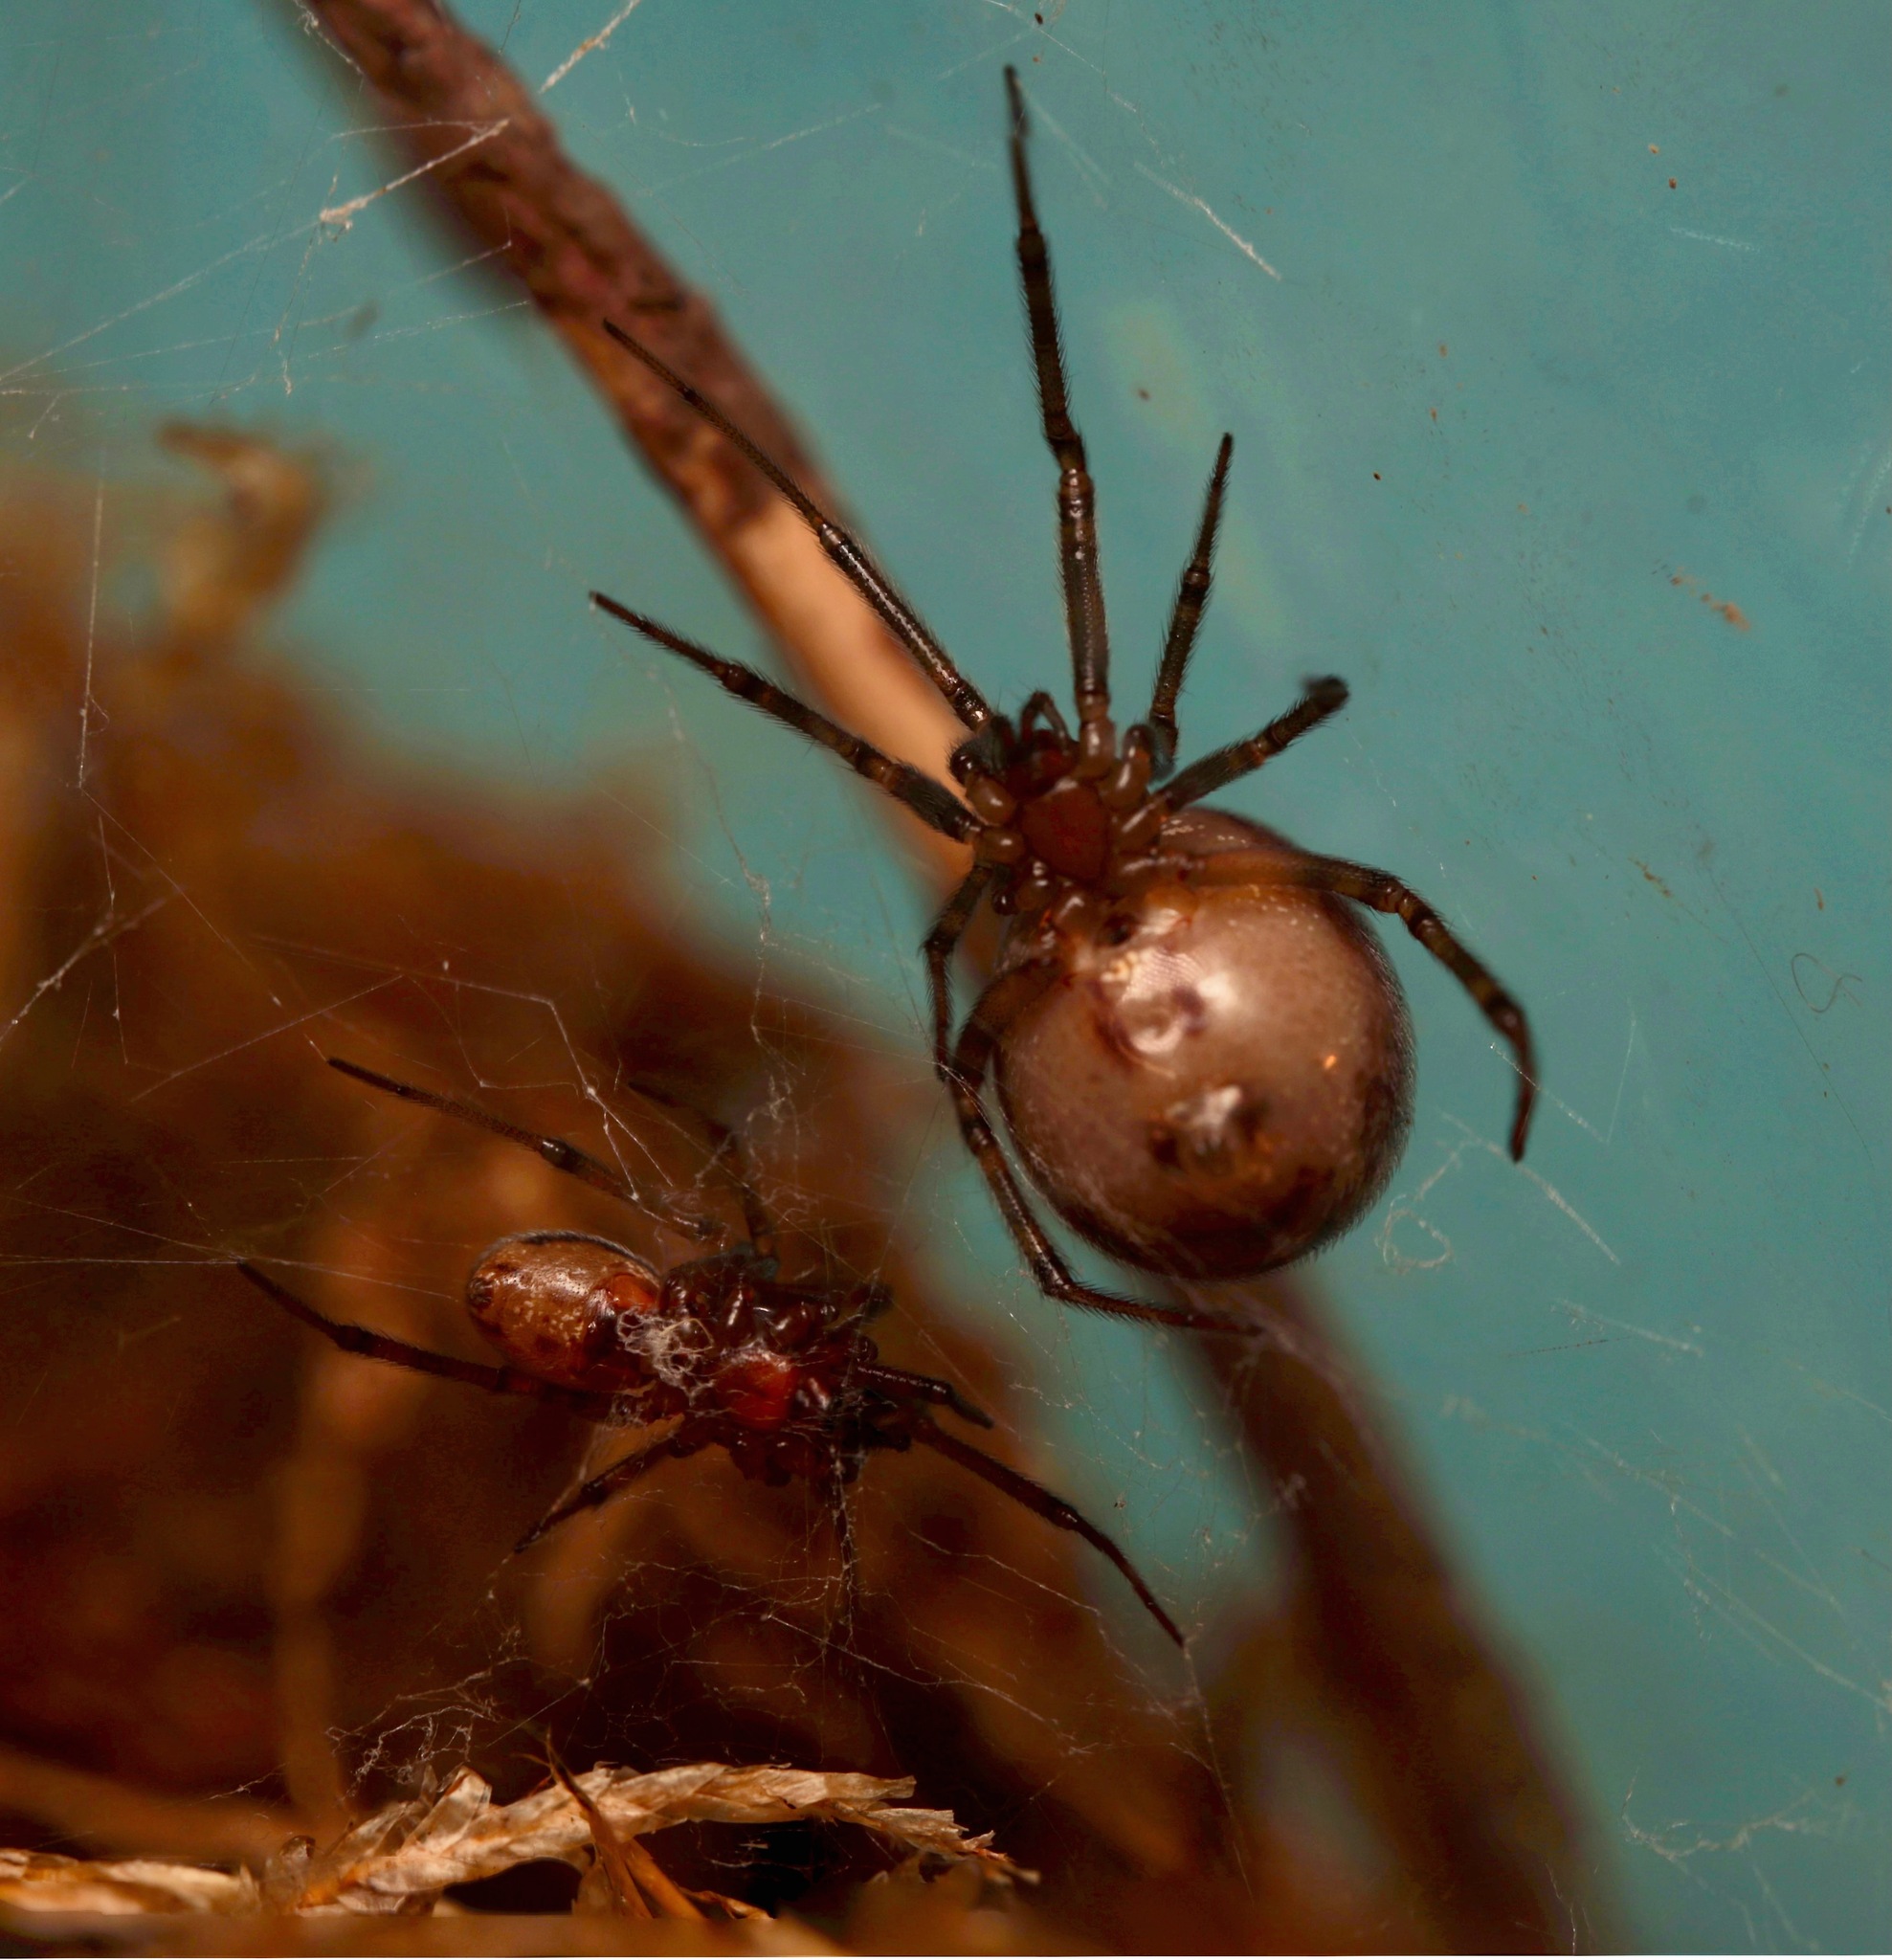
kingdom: Animalia
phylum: Arthropoda
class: Arachnida
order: Araneae
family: Theridiidae
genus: Steatoda
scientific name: Steatoda borealis
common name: Boreal combfoot
